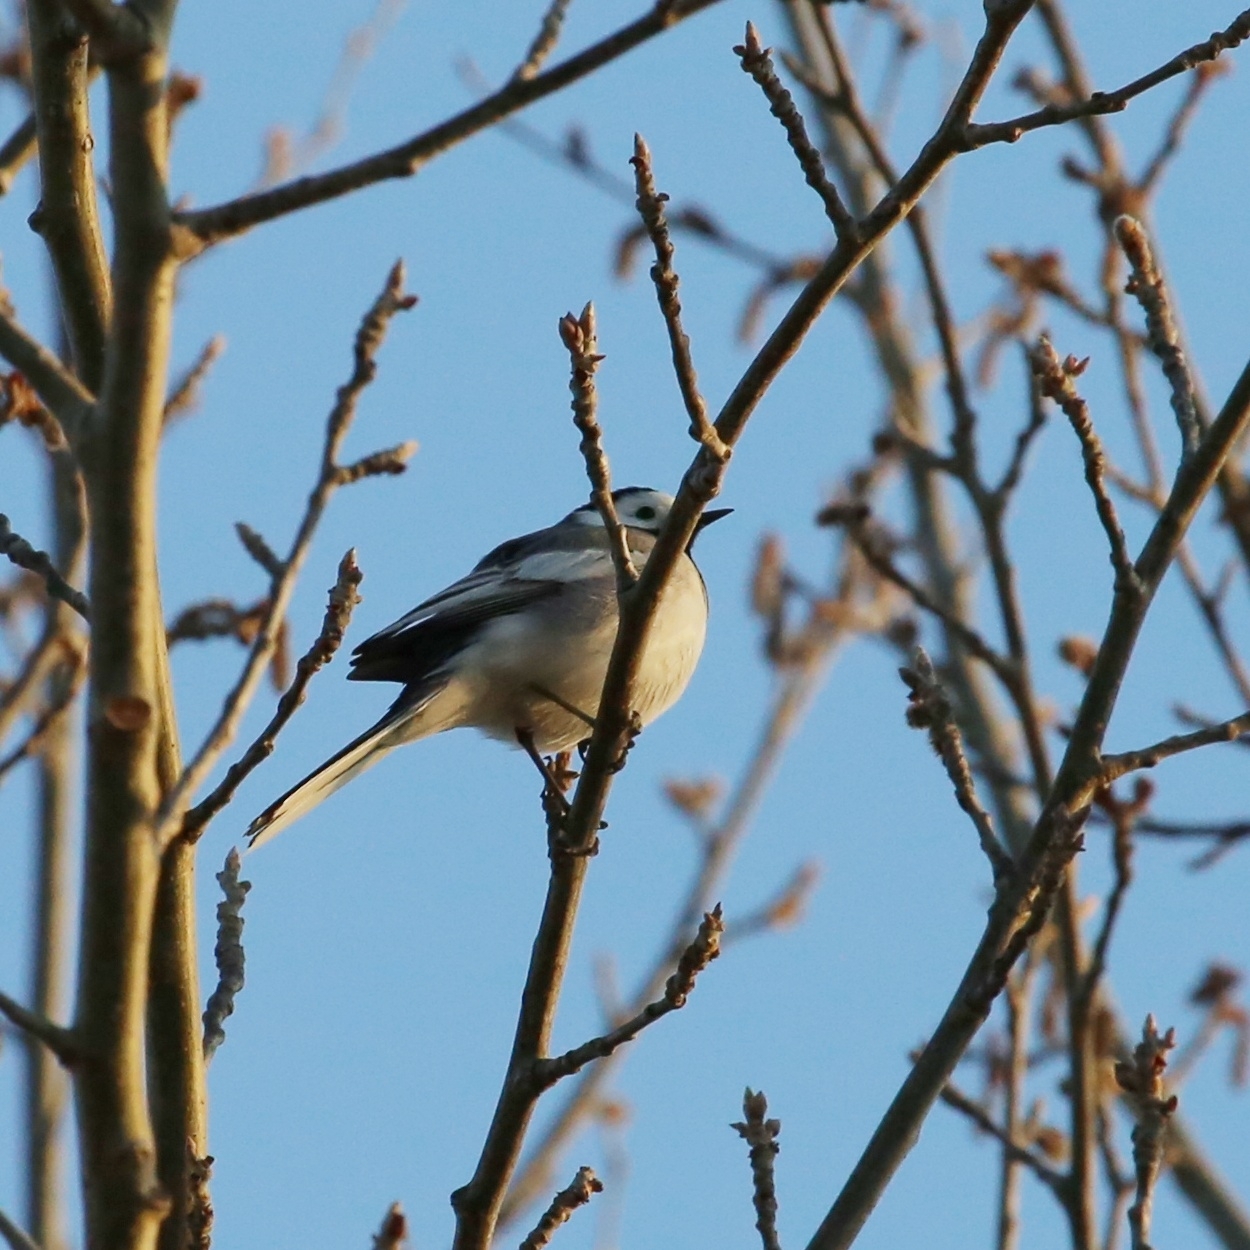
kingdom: Animalia
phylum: Chordata
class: Aves
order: Passeriformes
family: Motacillidae
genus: Motacilla
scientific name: Motacilla alba
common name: White wagtail
